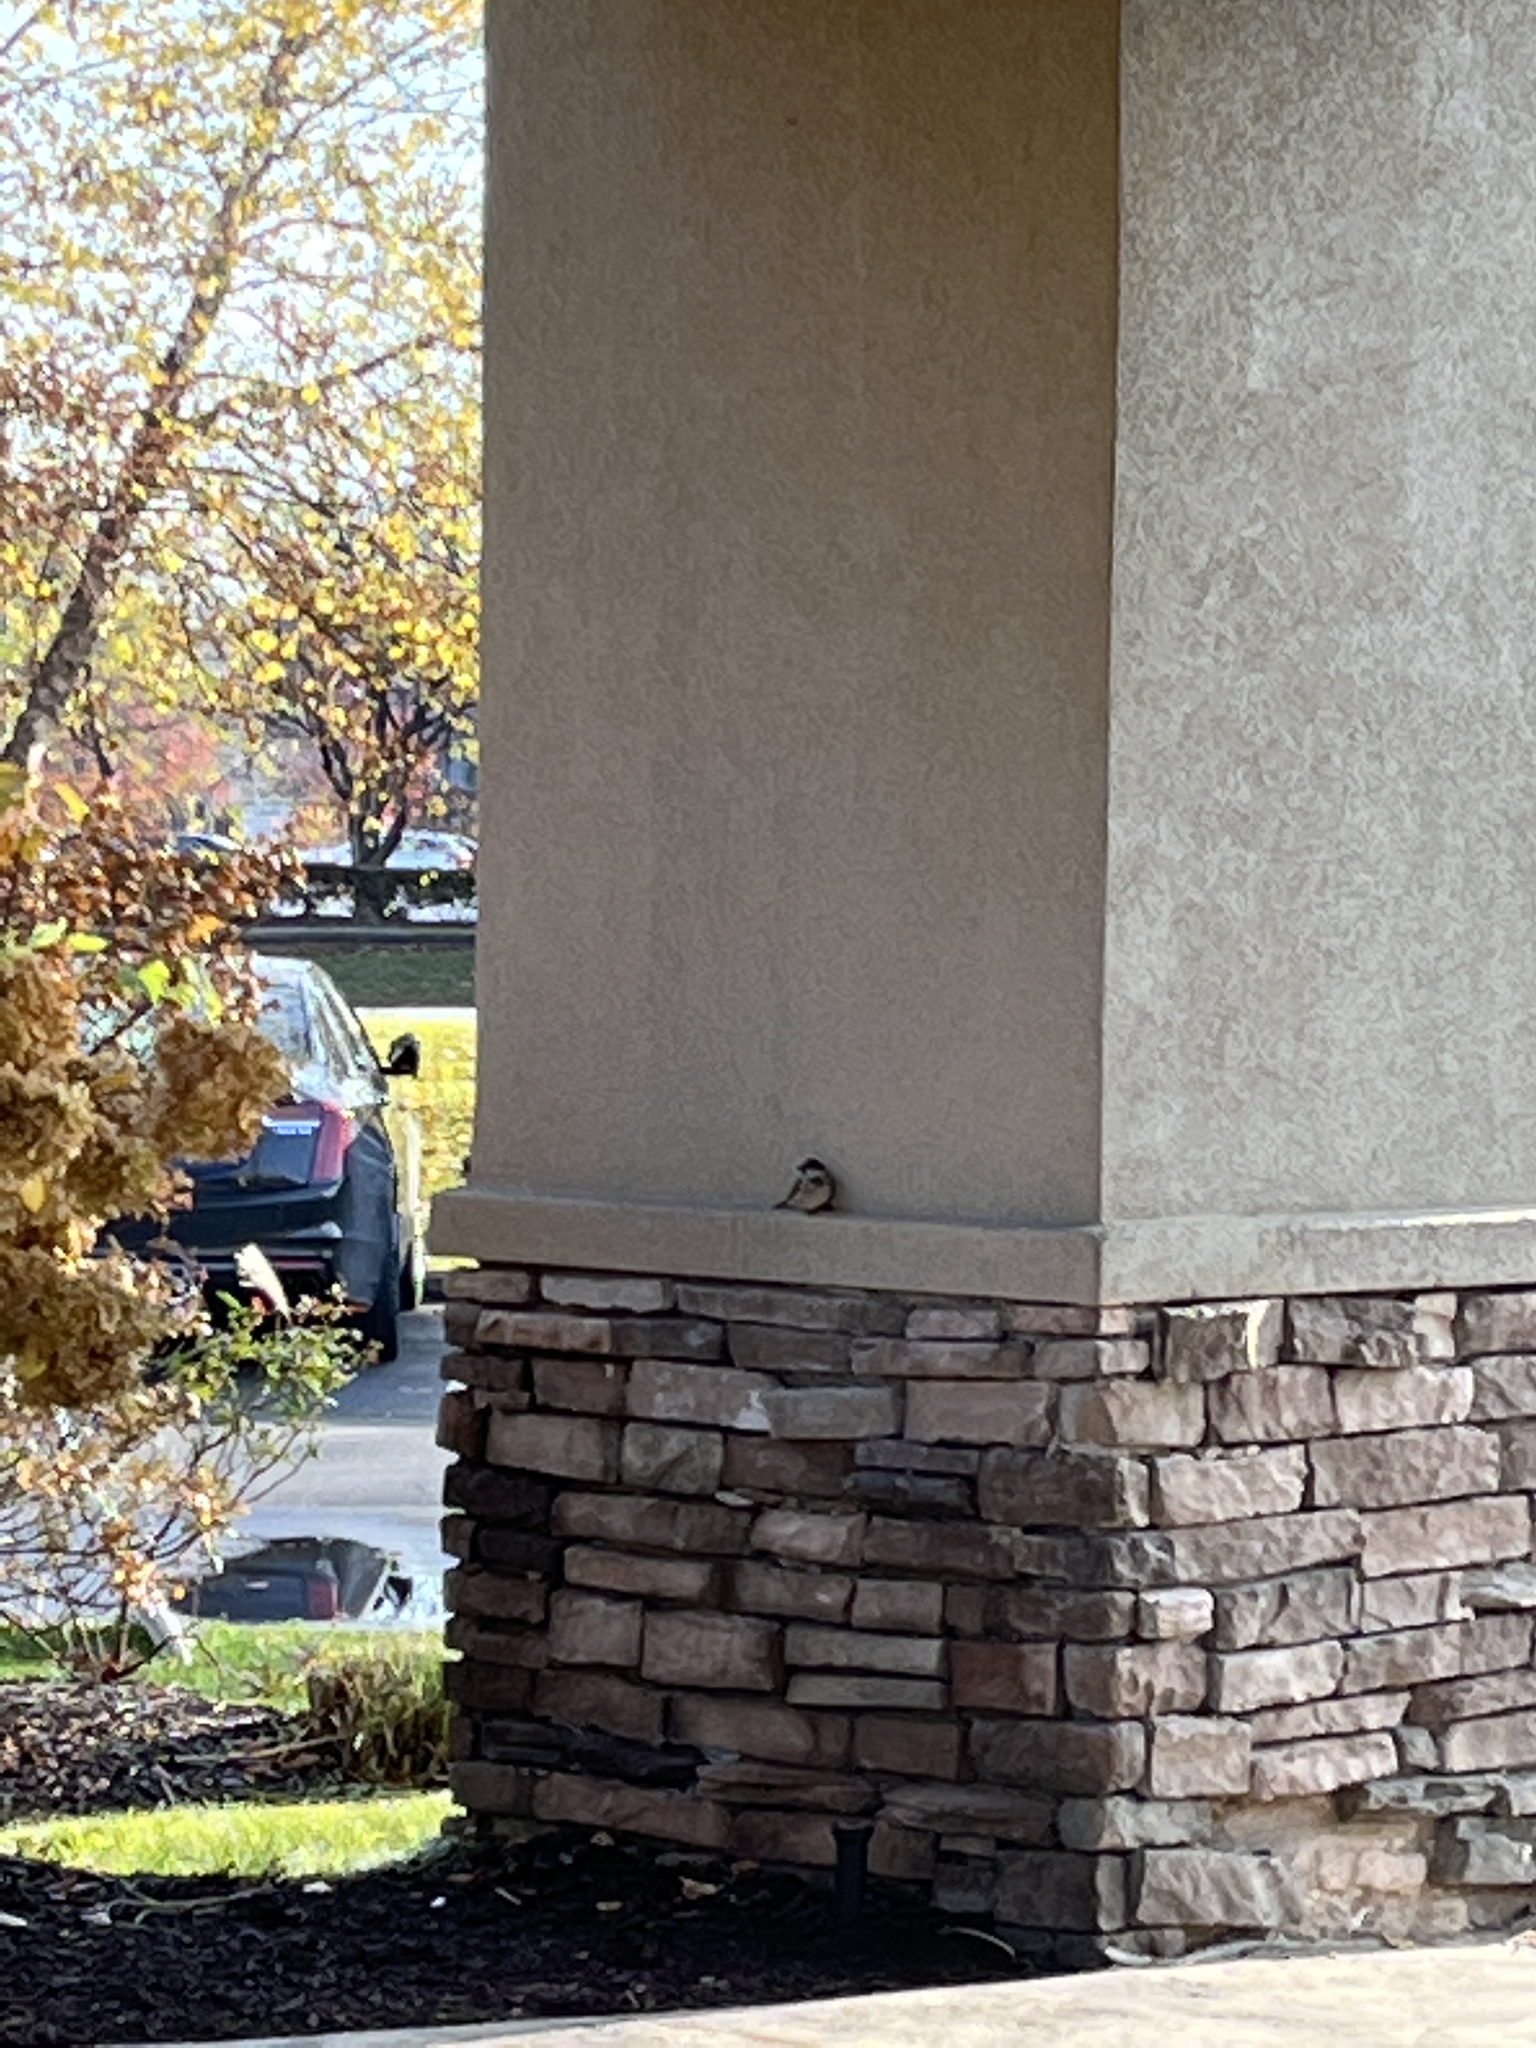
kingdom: Animalia
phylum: Chordata
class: Aves
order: Passeriformes
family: Passeridae
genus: Passer
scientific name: Passer domesticus
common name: House sparrow
